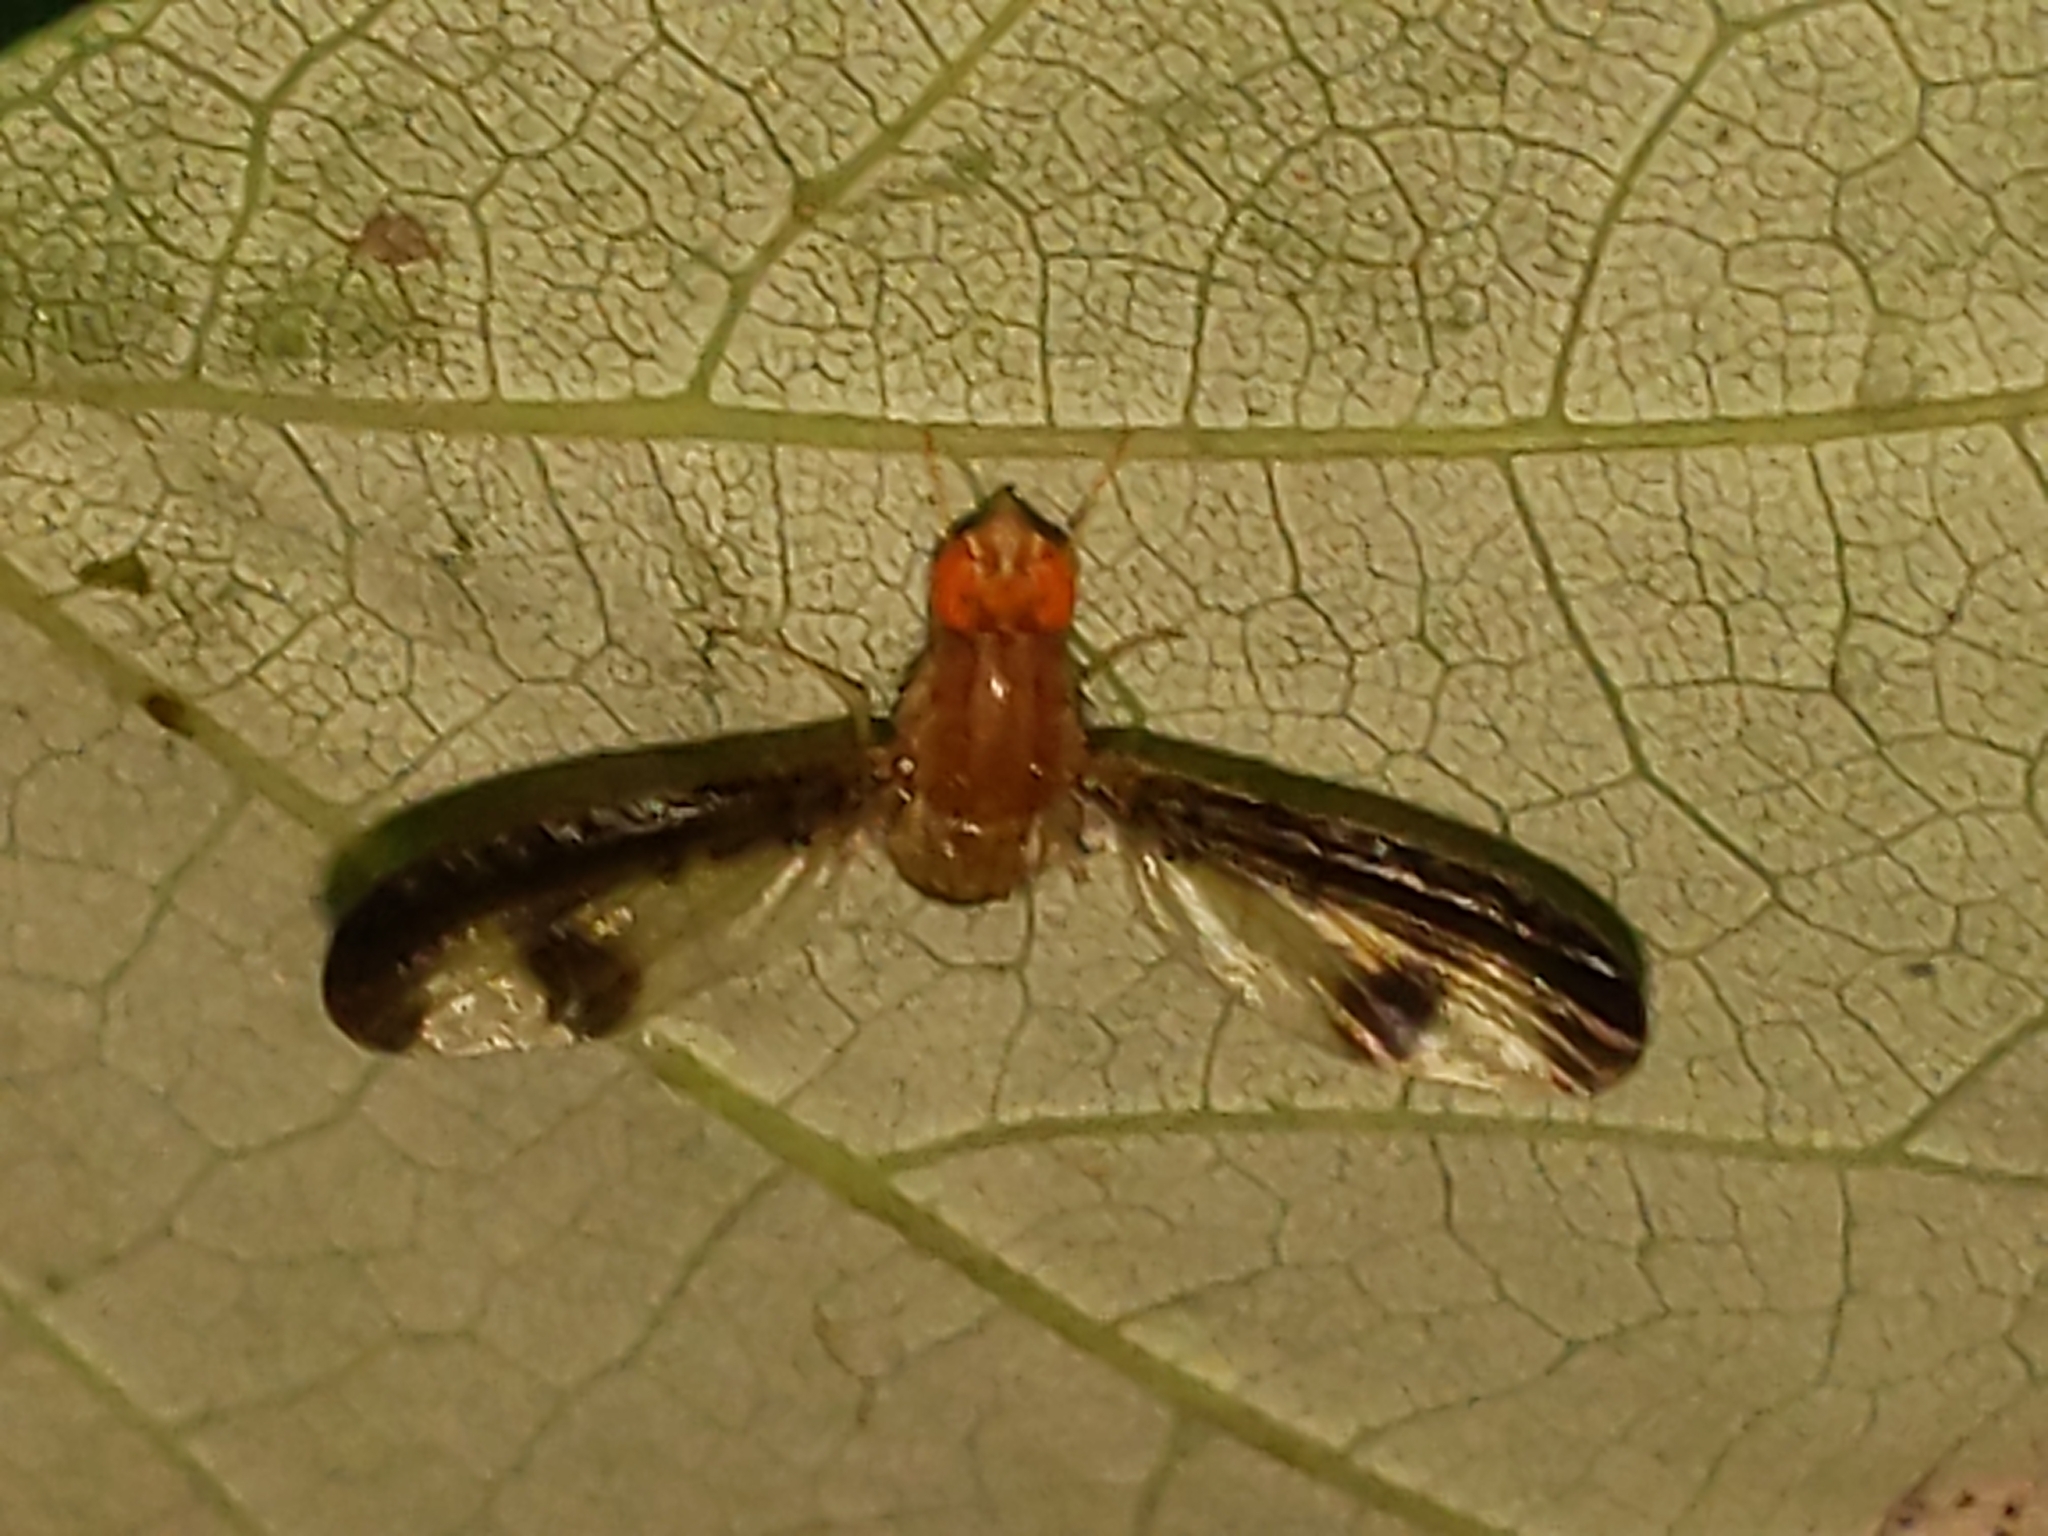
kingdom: Animalia
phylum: Arthropoda
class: Insecta
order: Diptera
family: Pallopteridae
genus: Toxonevra
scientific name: Toxonevra superba
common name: Antlered flutter fly
